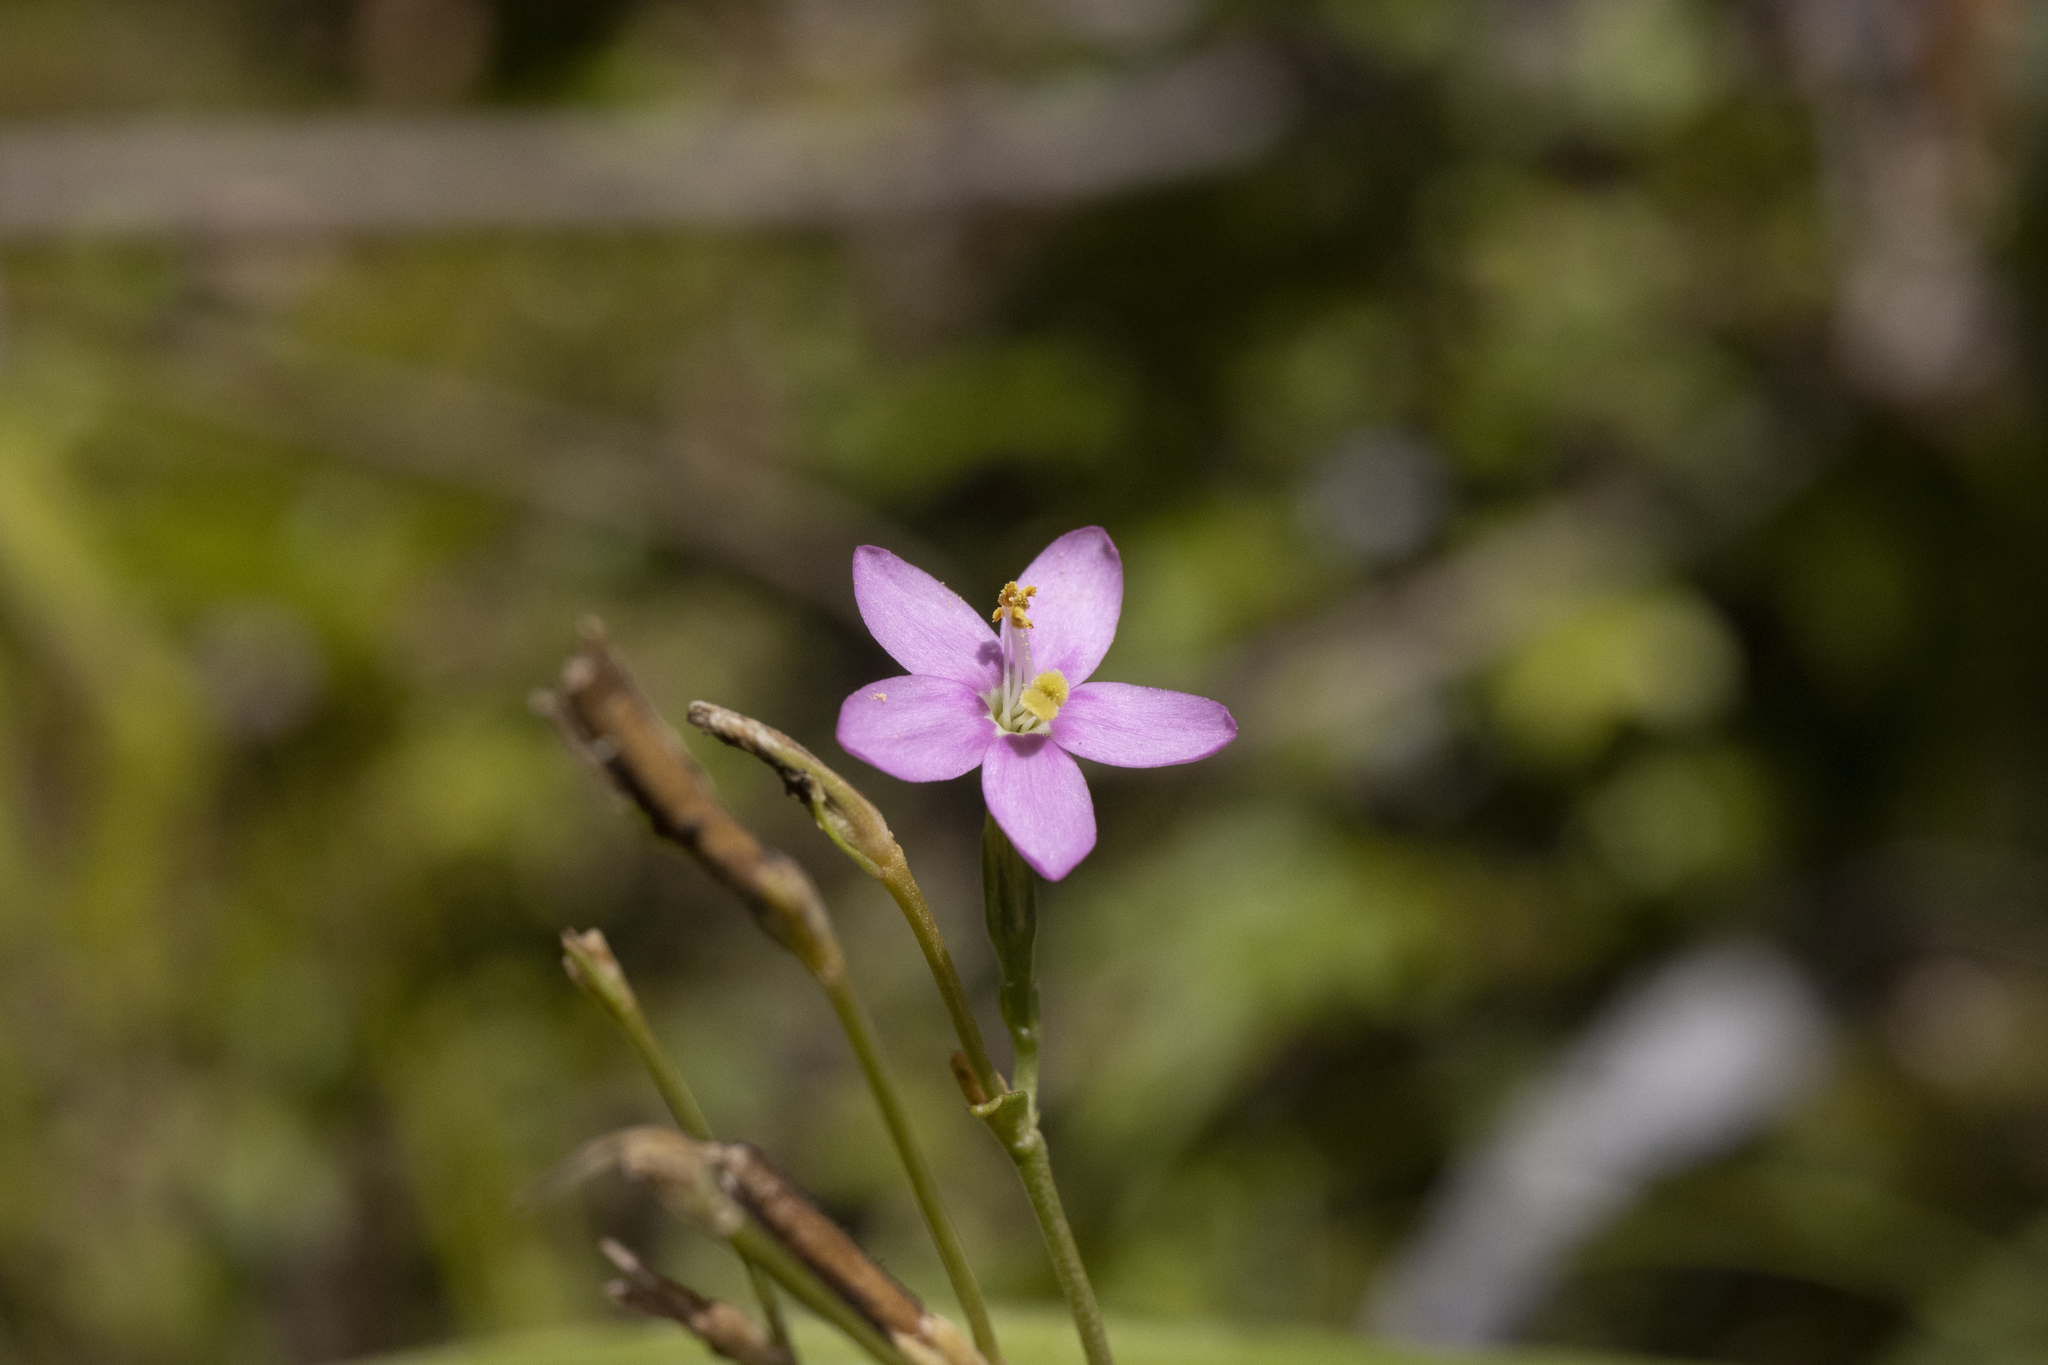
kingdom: Plantae
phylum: Tracheophyta
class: Magnoliopsida
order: Gentianales
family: Gentianaceae
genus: Centaurium
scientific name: Centaurium erythraea
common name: Common centaury
